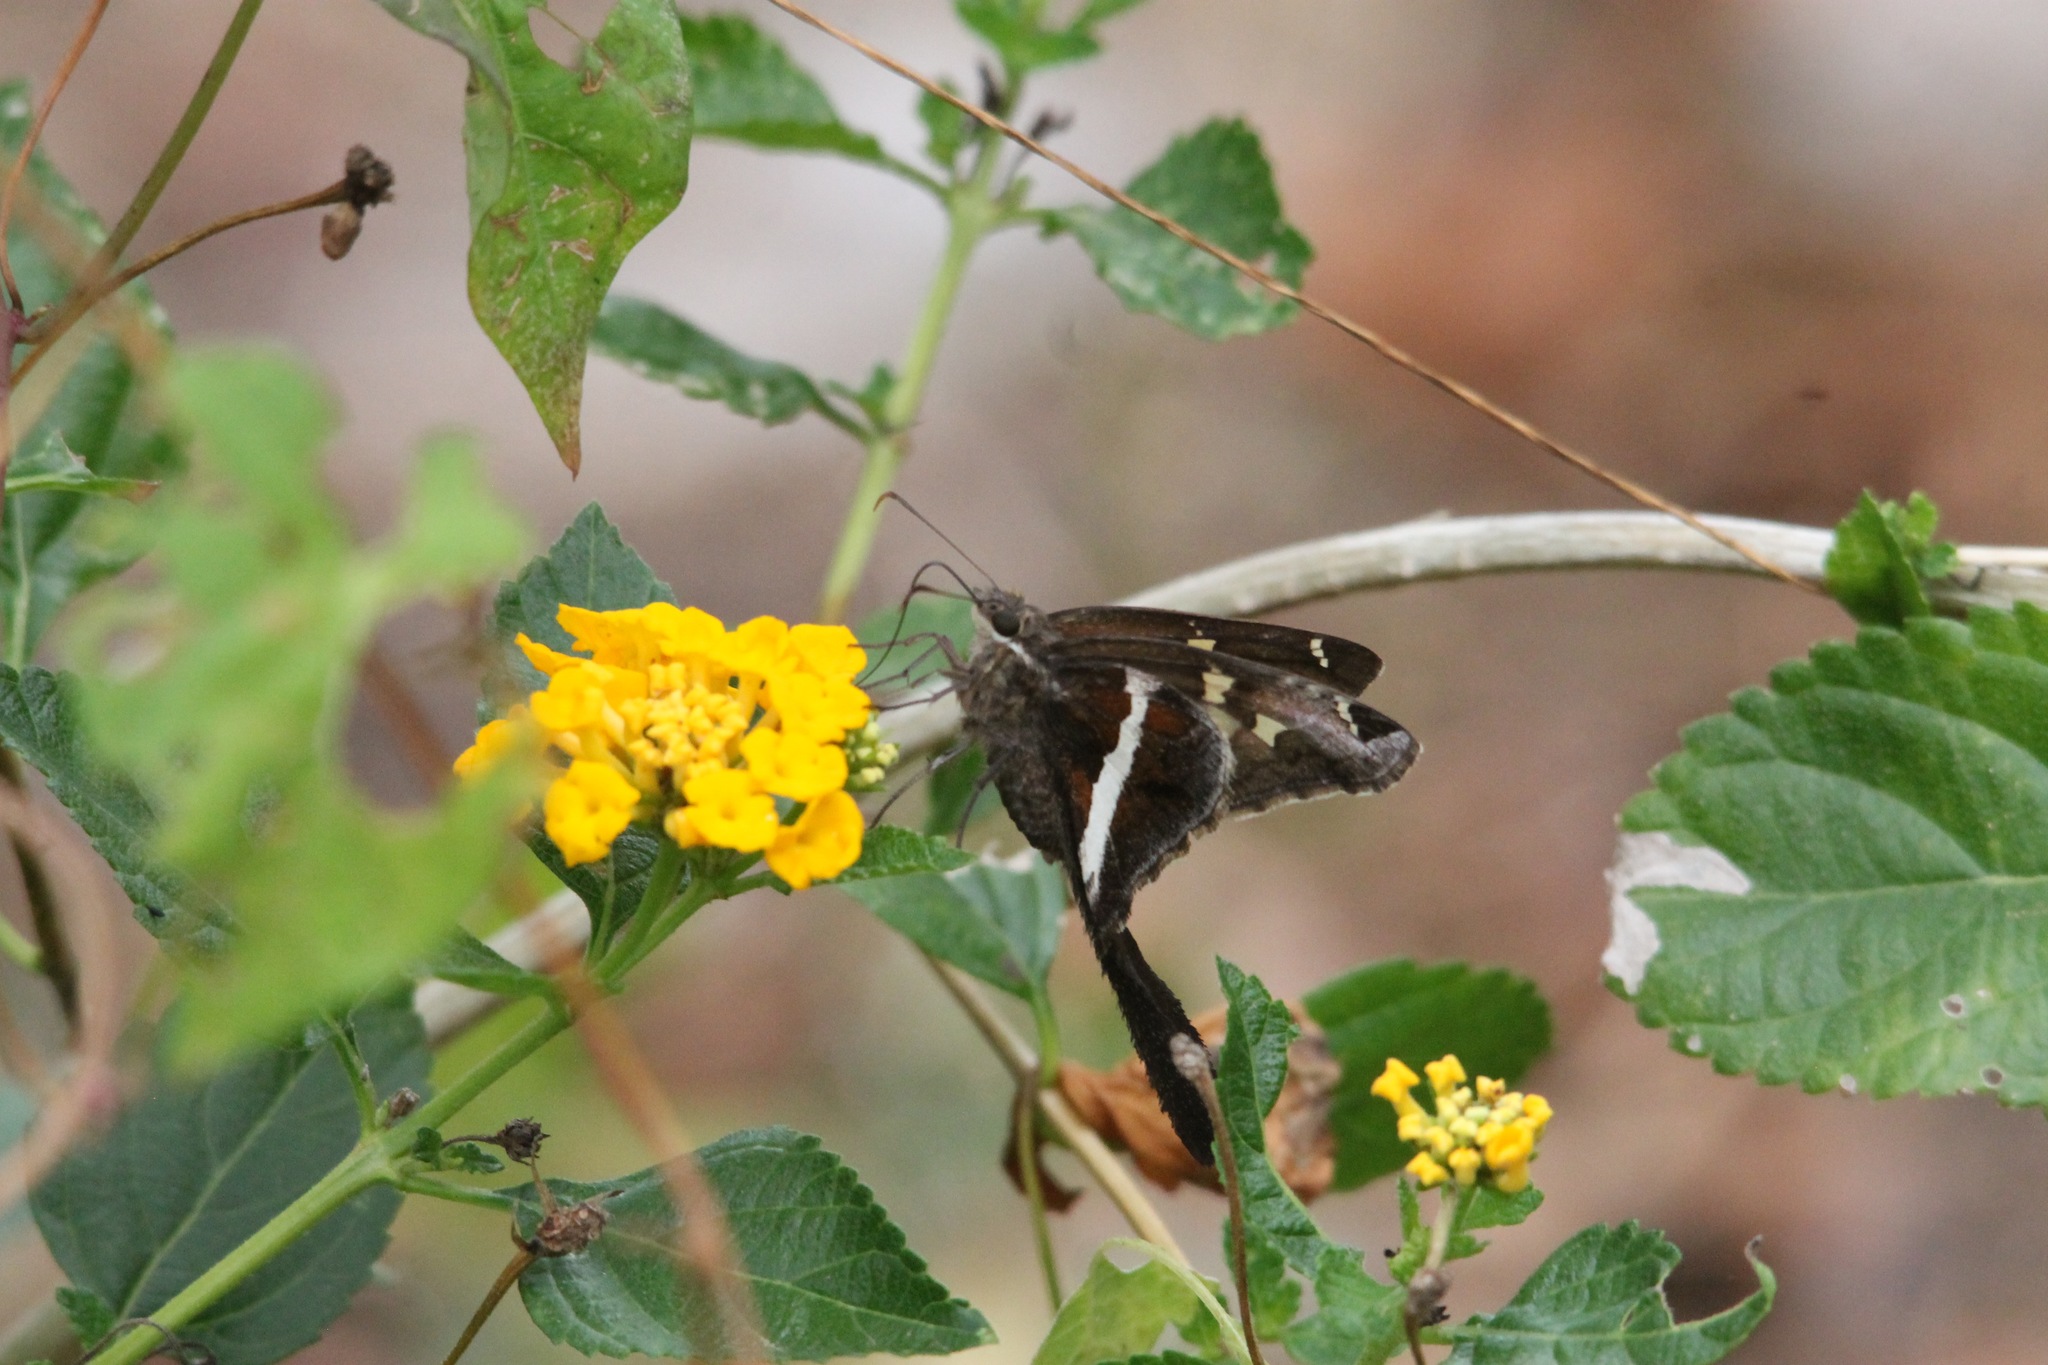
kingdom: Animalia
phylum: Arthropoda
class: Insecta
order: Lepidoptera
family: Hesperiidae
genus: Chioides
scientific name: Chioides catillus
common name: Silverbanded skipper
